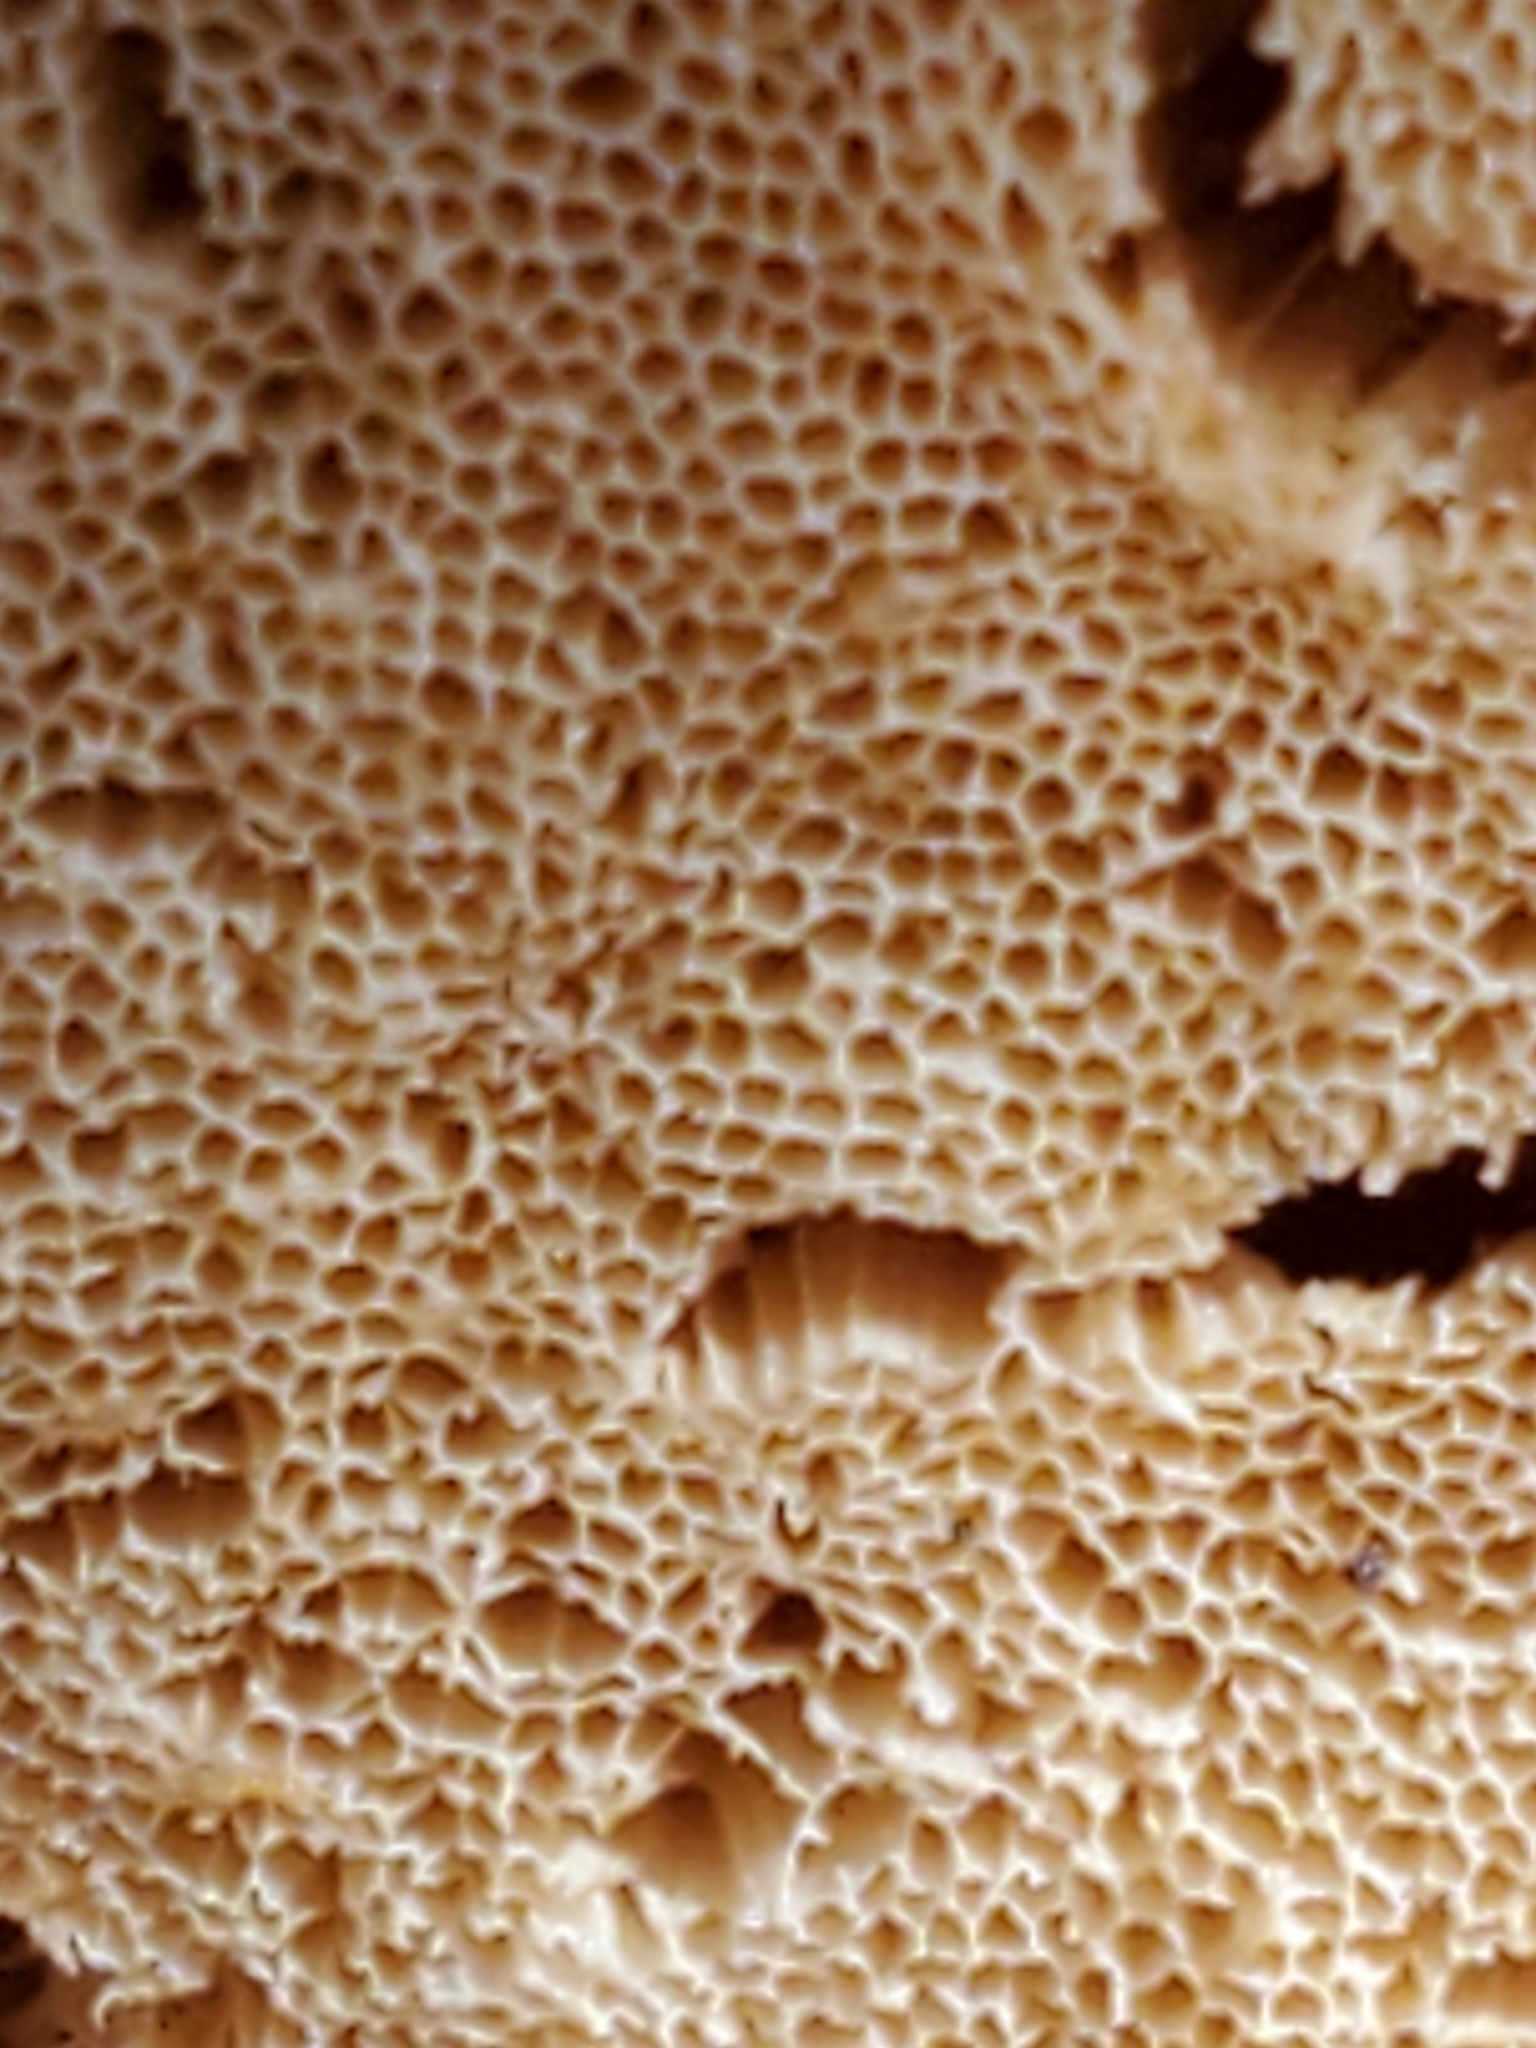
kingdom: Fungi
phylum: Basidiomycota
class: Agaricomycetes
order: Polyporales
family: Incrustoporiaceae
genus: Tyromyces
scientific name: Tyromyces chioneus
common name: White cheese polypore
